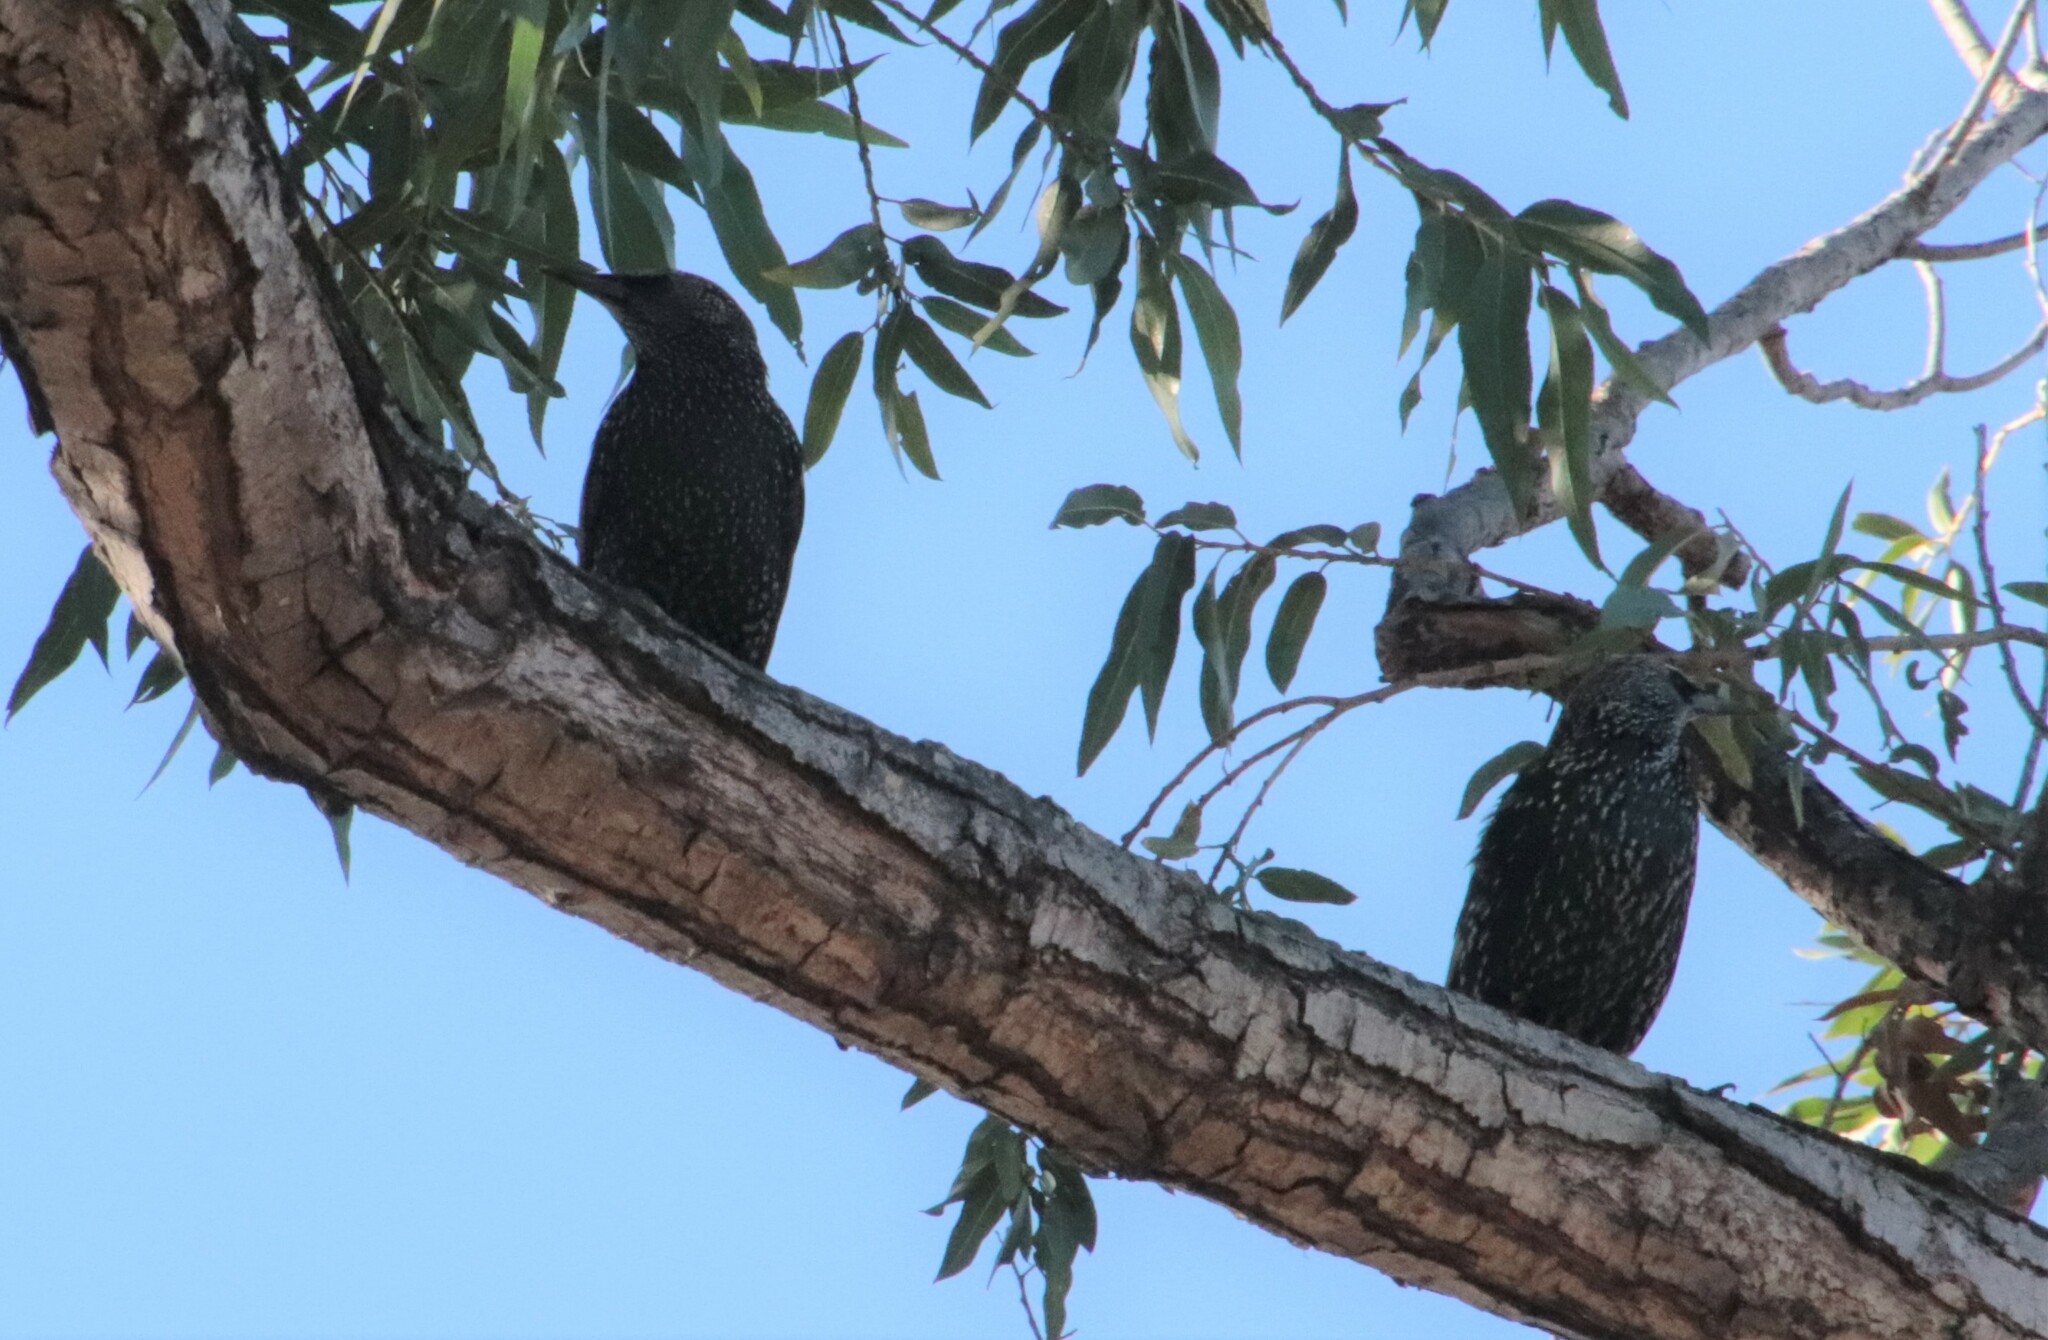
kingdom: Animalia
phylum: Chordata
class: Aves
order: Passeriformes
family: Sturnidae
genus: Sturnus
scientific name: Sturnus vulgaris
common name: Common starling
